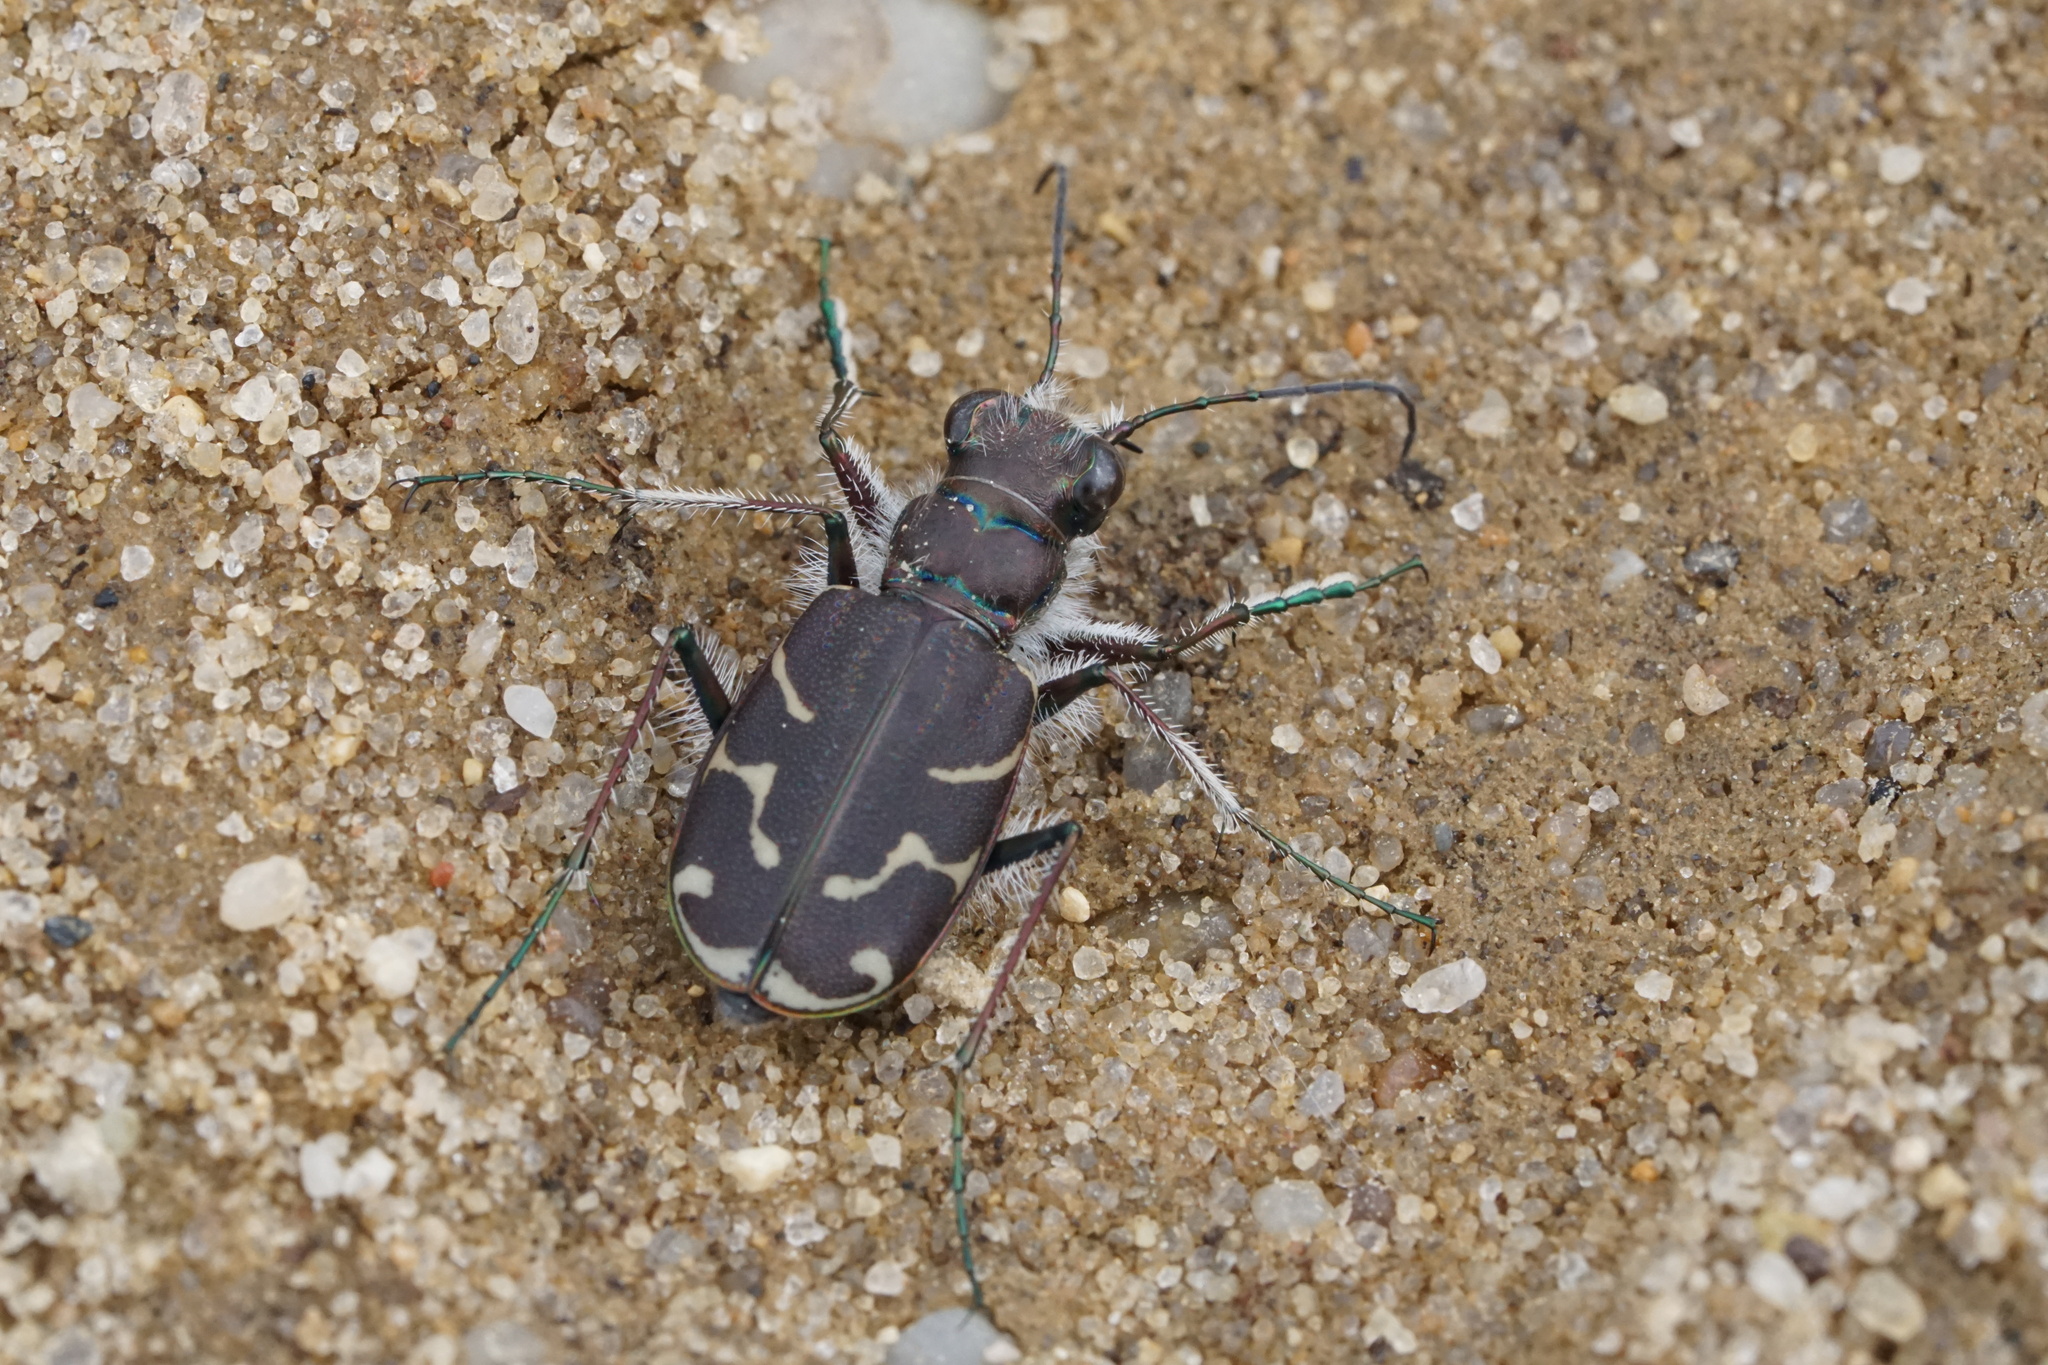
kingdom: Animalia
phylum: Arthropoda
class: Insecta
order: Coleoptera
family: Carabidae
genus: Cicindela
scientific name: Cicindela tranquebarica
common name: Oblique-lined tiger beetle
